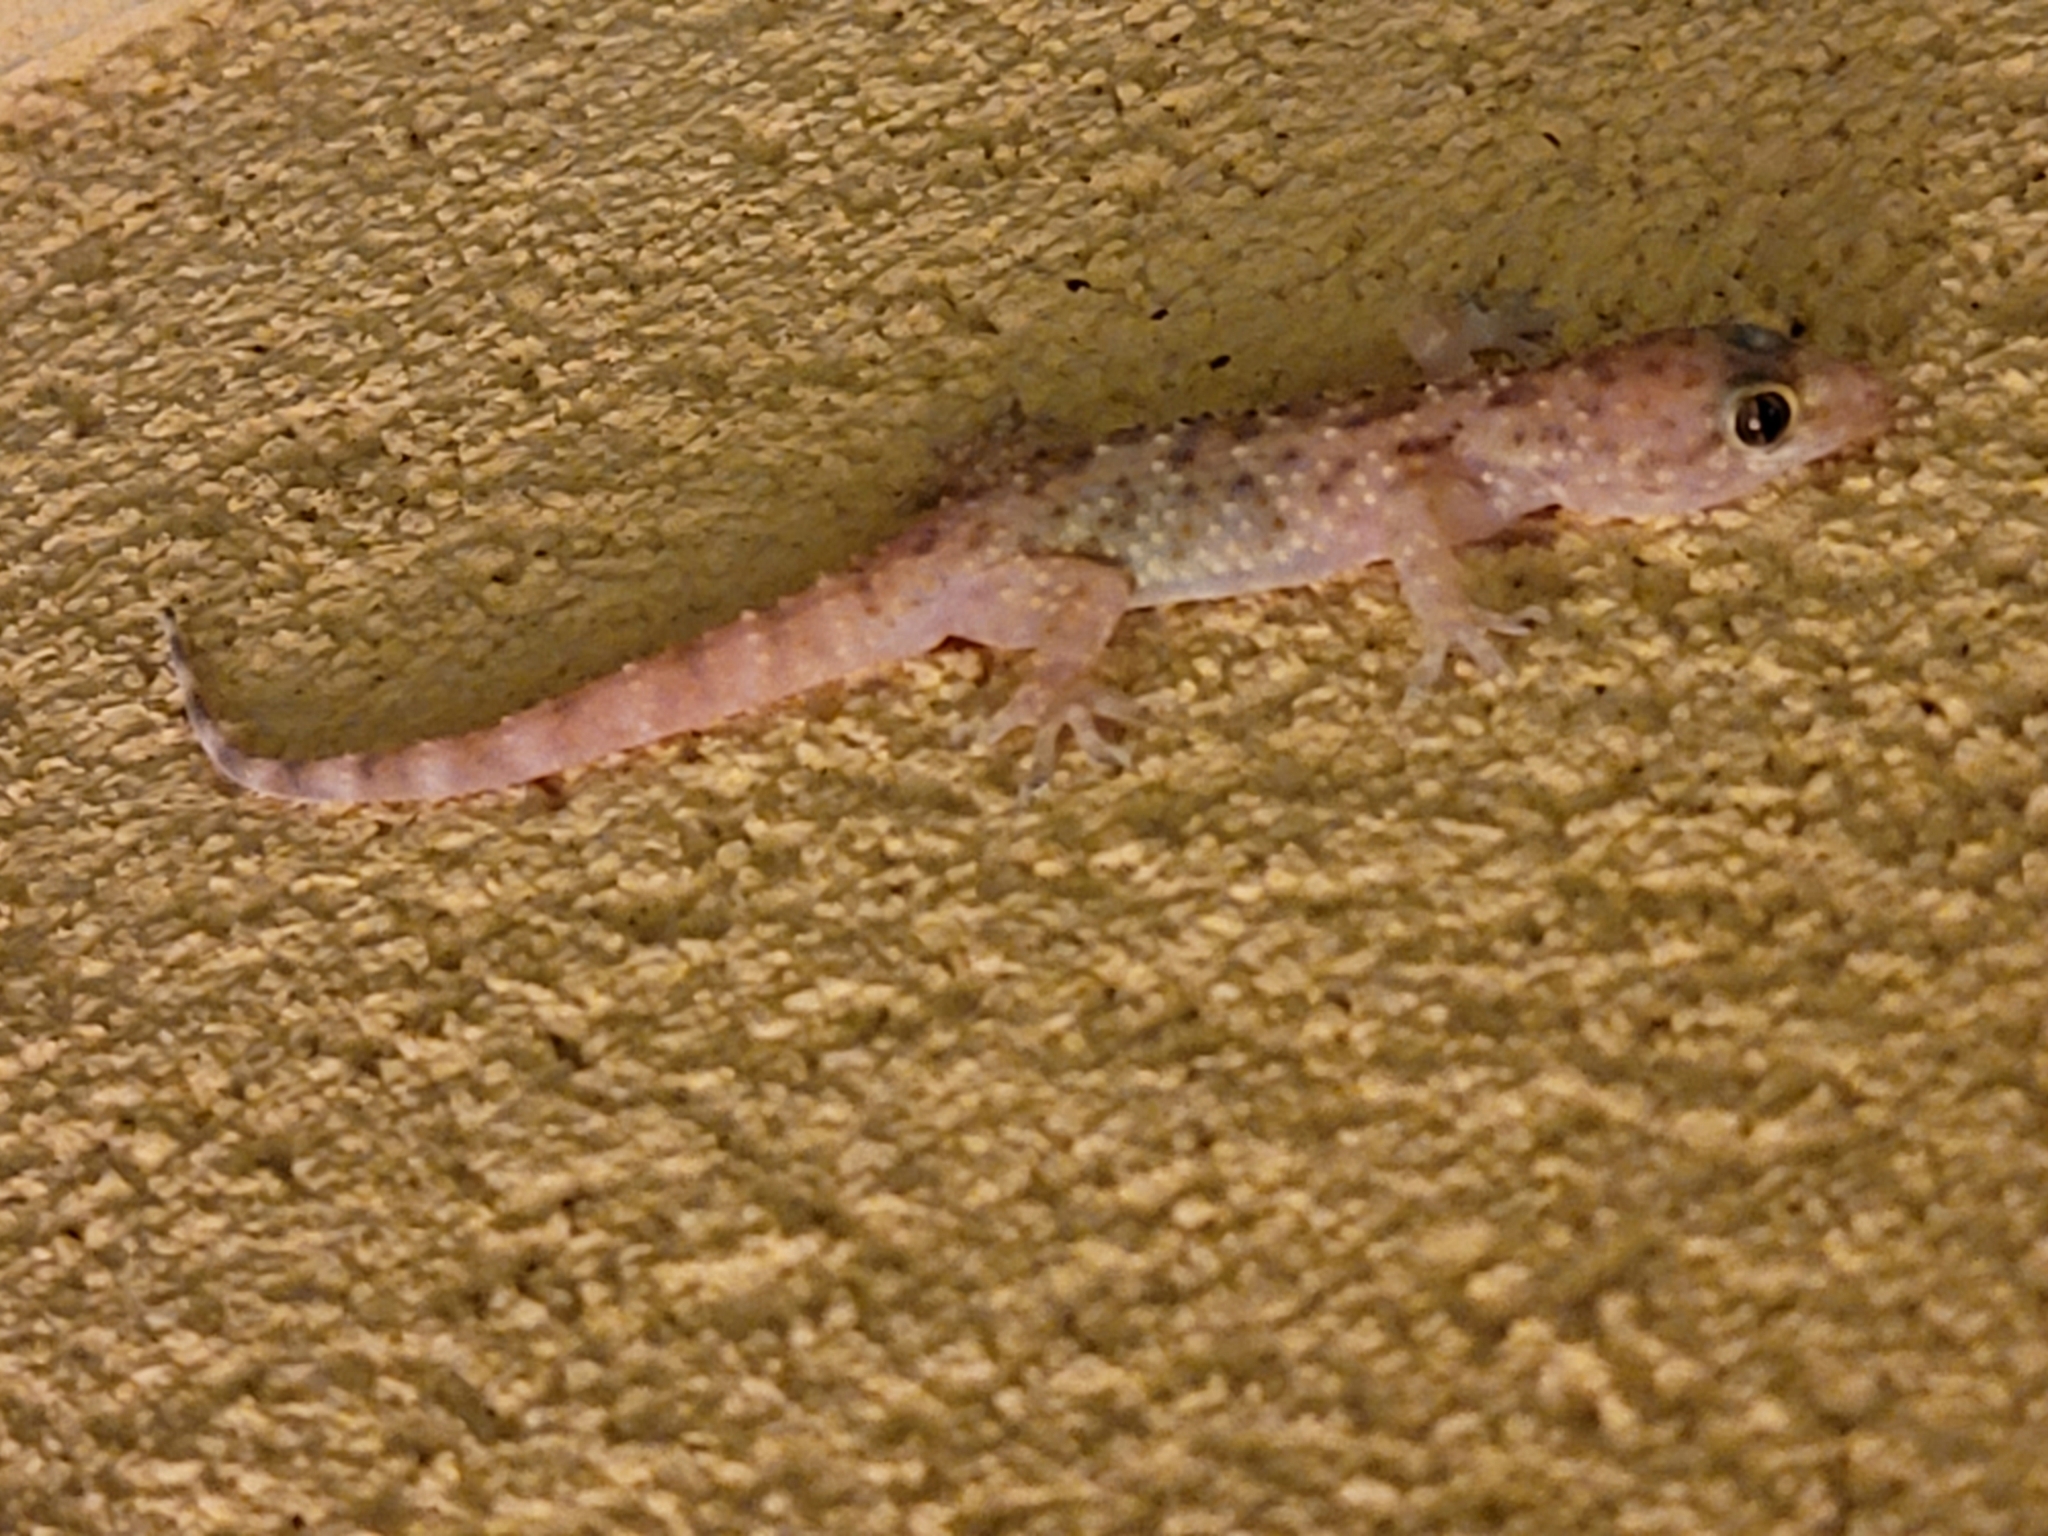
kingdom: Animalia
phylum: Chordata
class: Squamata
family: Gekkonidae
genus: Hemidactylus
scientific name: Hemidactylus turcicus
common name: Turkish gecko
